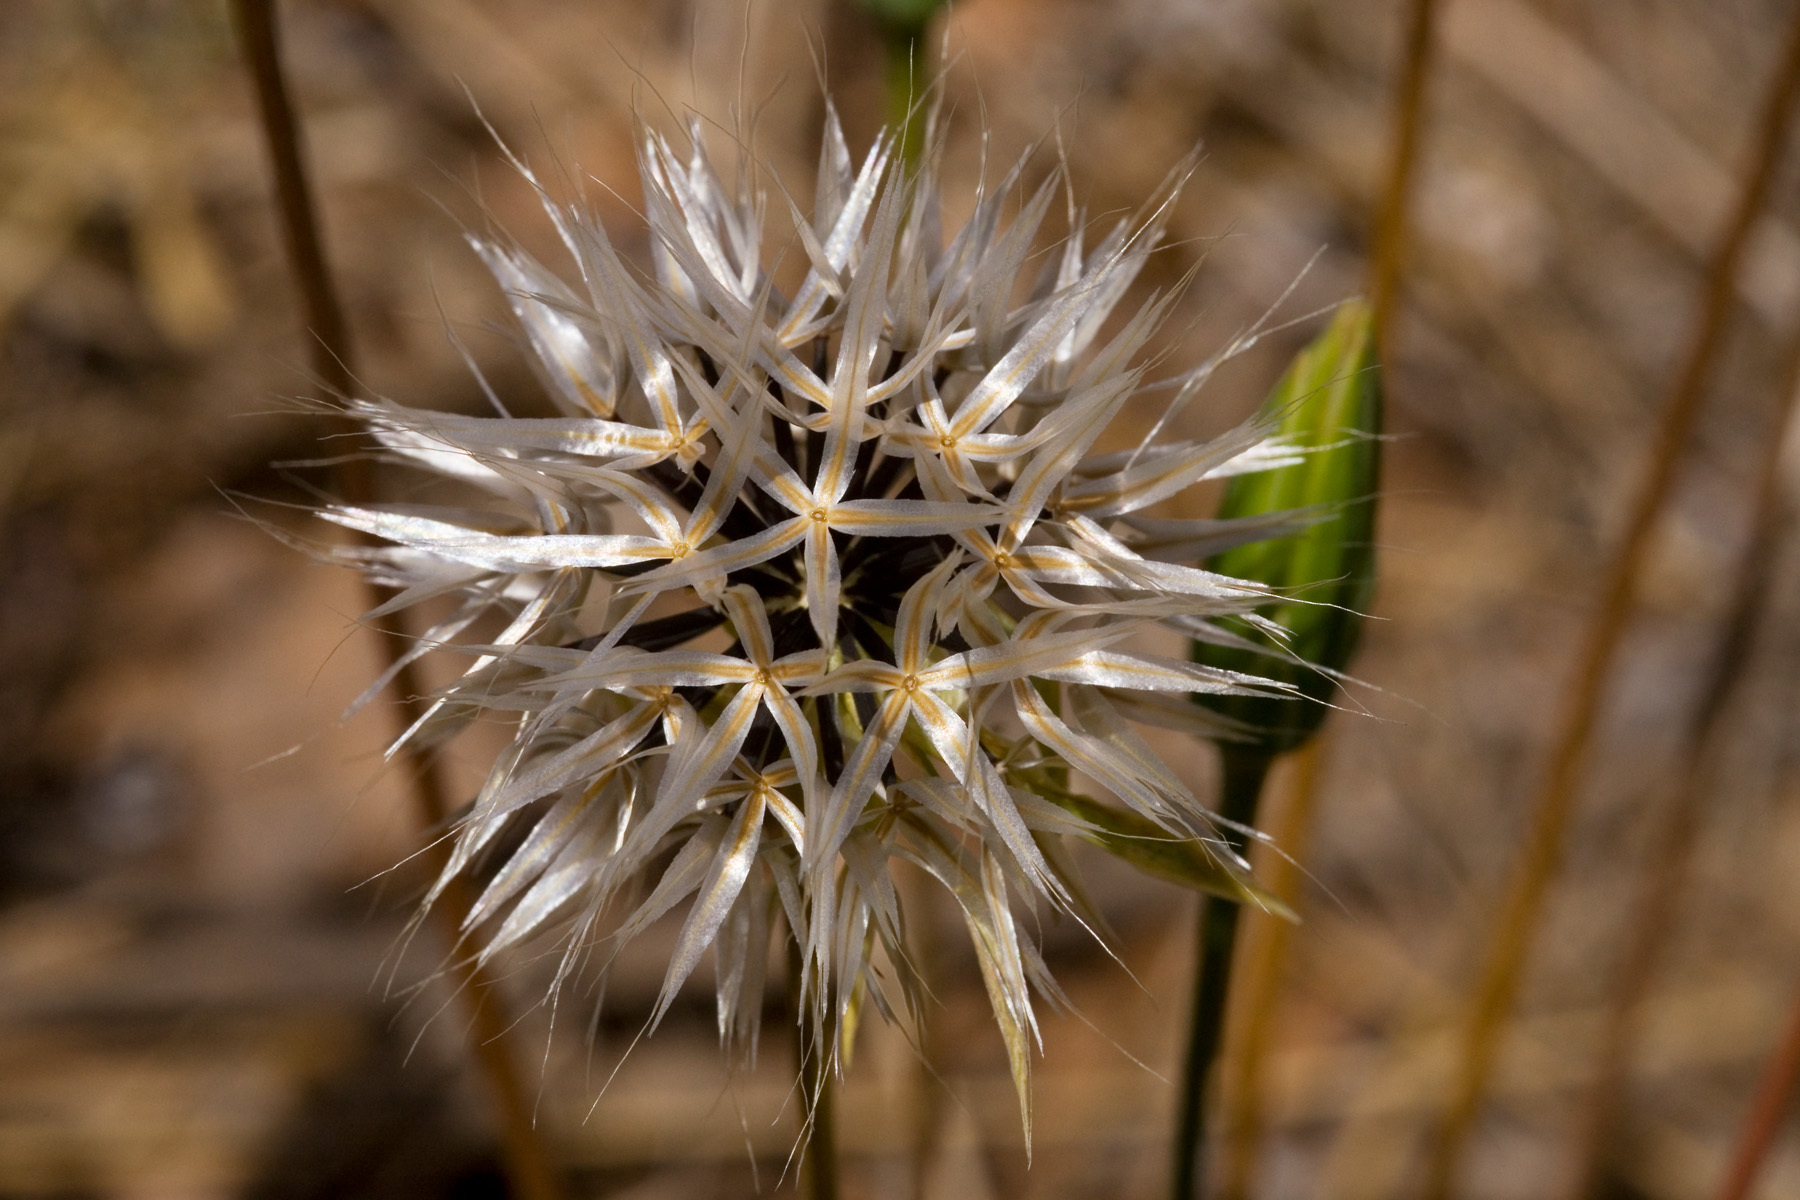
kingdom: Plantae
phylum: Tracheophyta
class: Magnoliopsida
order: Asterales
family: Asteraceae
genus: Microseris
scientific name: Microseris lindleyi
